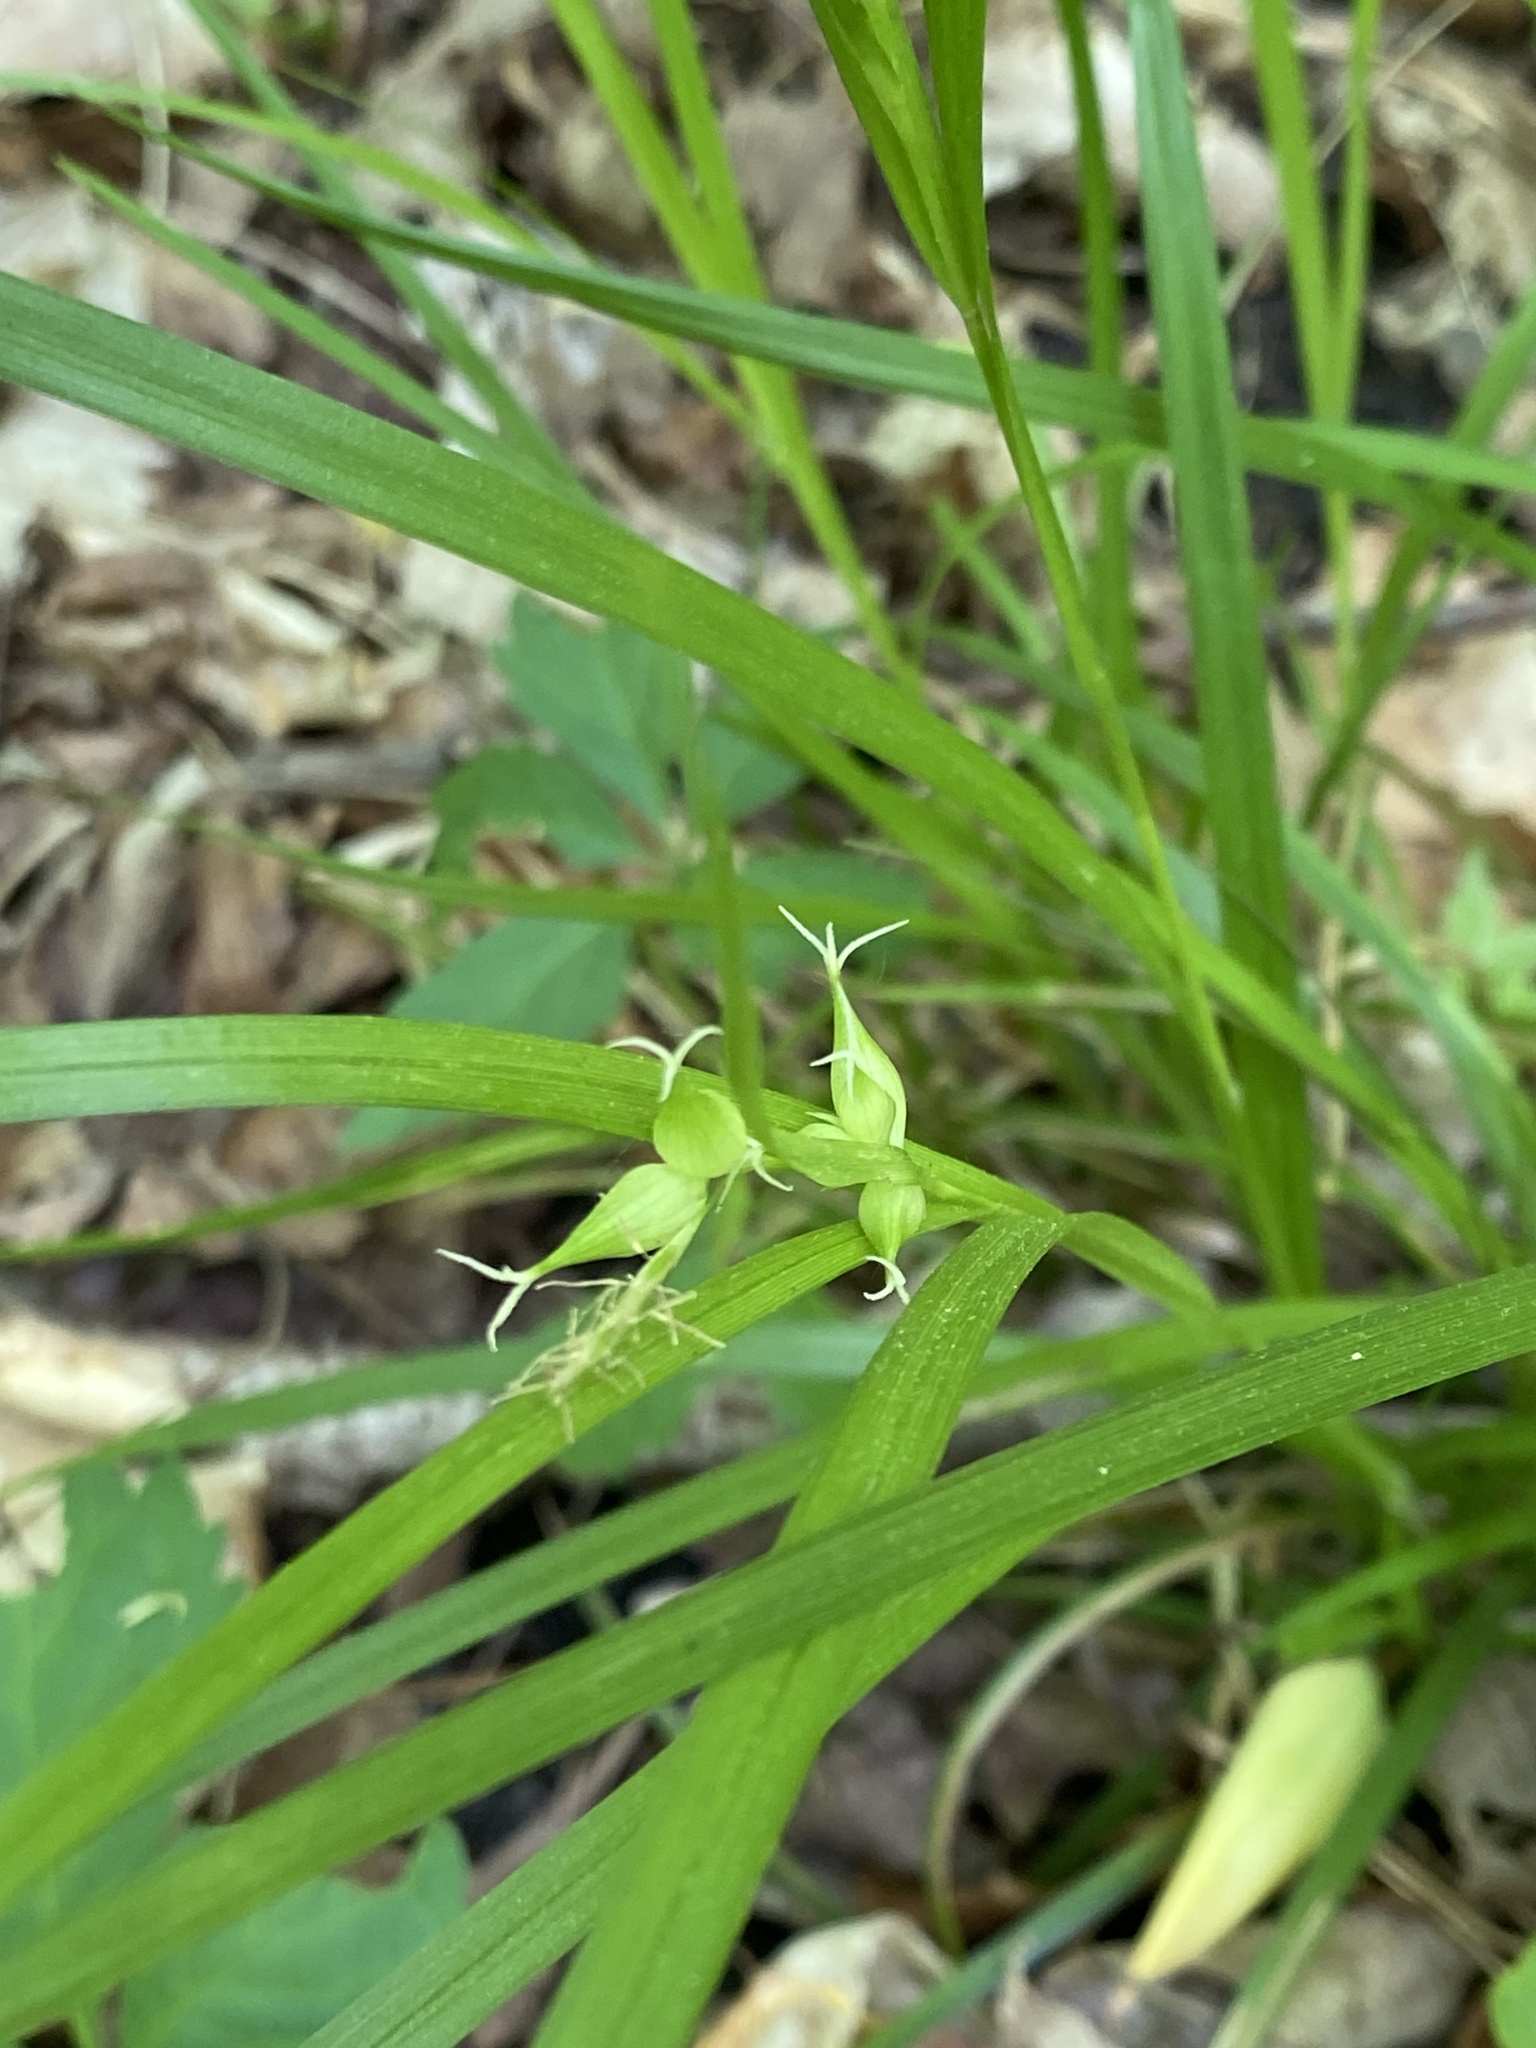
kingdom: Plantae
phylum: Tracheophyta
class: Liliopsida
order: Poales
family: Cyperaceae
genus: Carex
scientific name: Carex intumescens
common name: Greater bladder sedge
